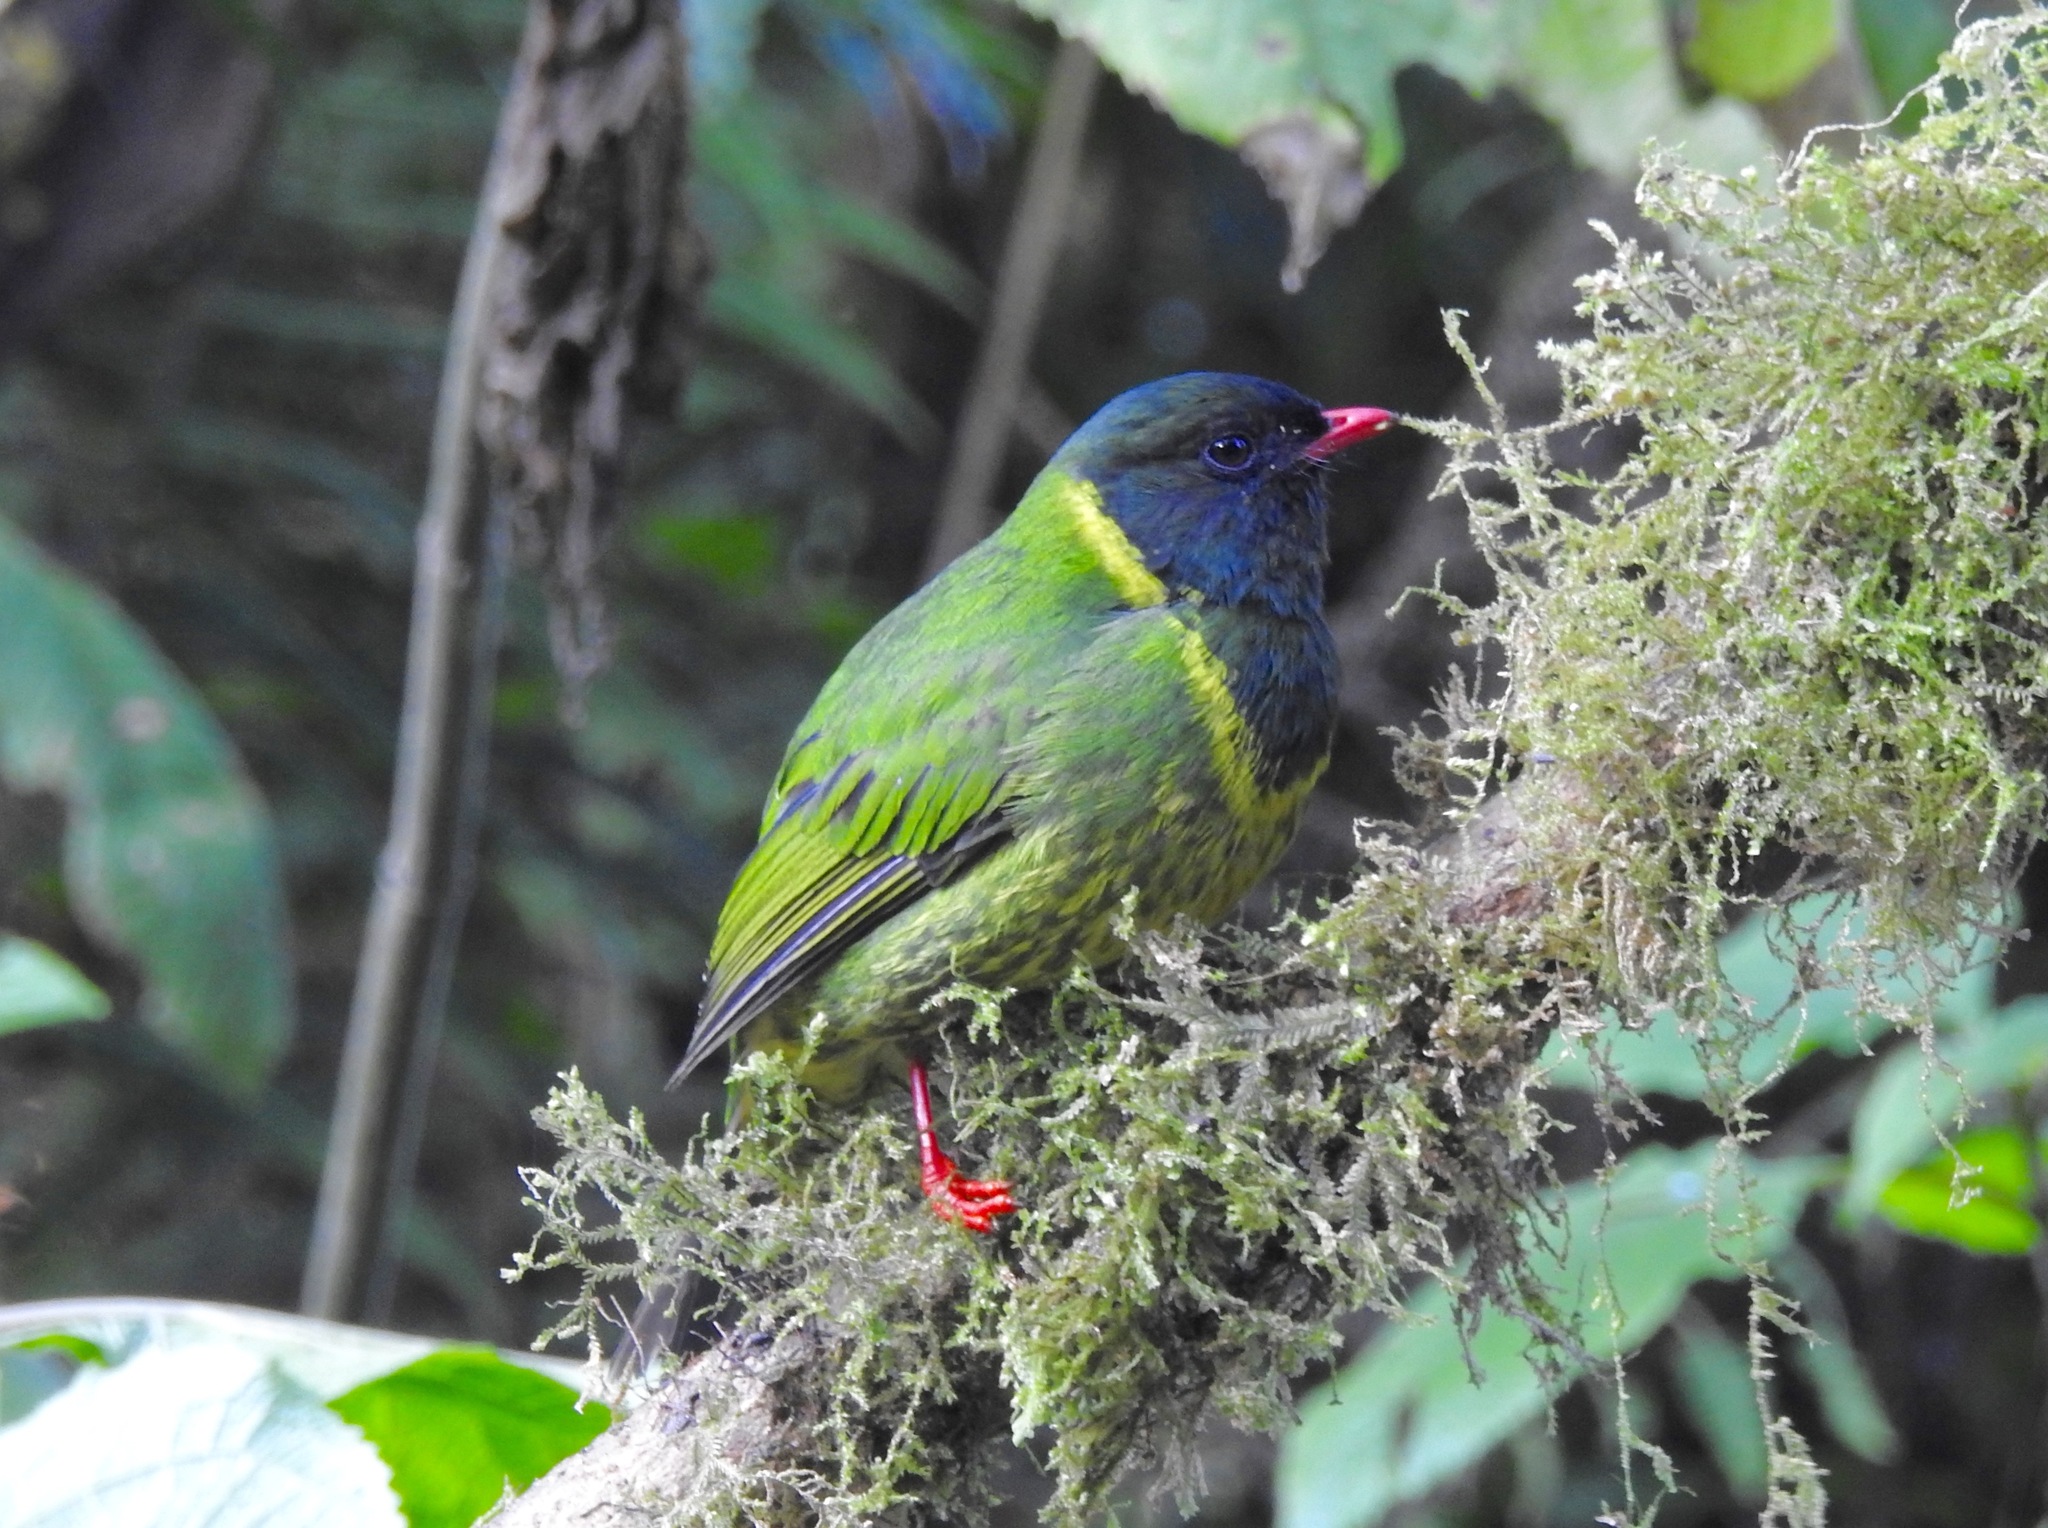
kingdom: Animalia
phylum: Chordata
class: Aves
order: Passeriformes
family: Cotingidae
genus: Pipreola
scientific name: Pipreola riefferii
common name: Green-and-black fruiteater
